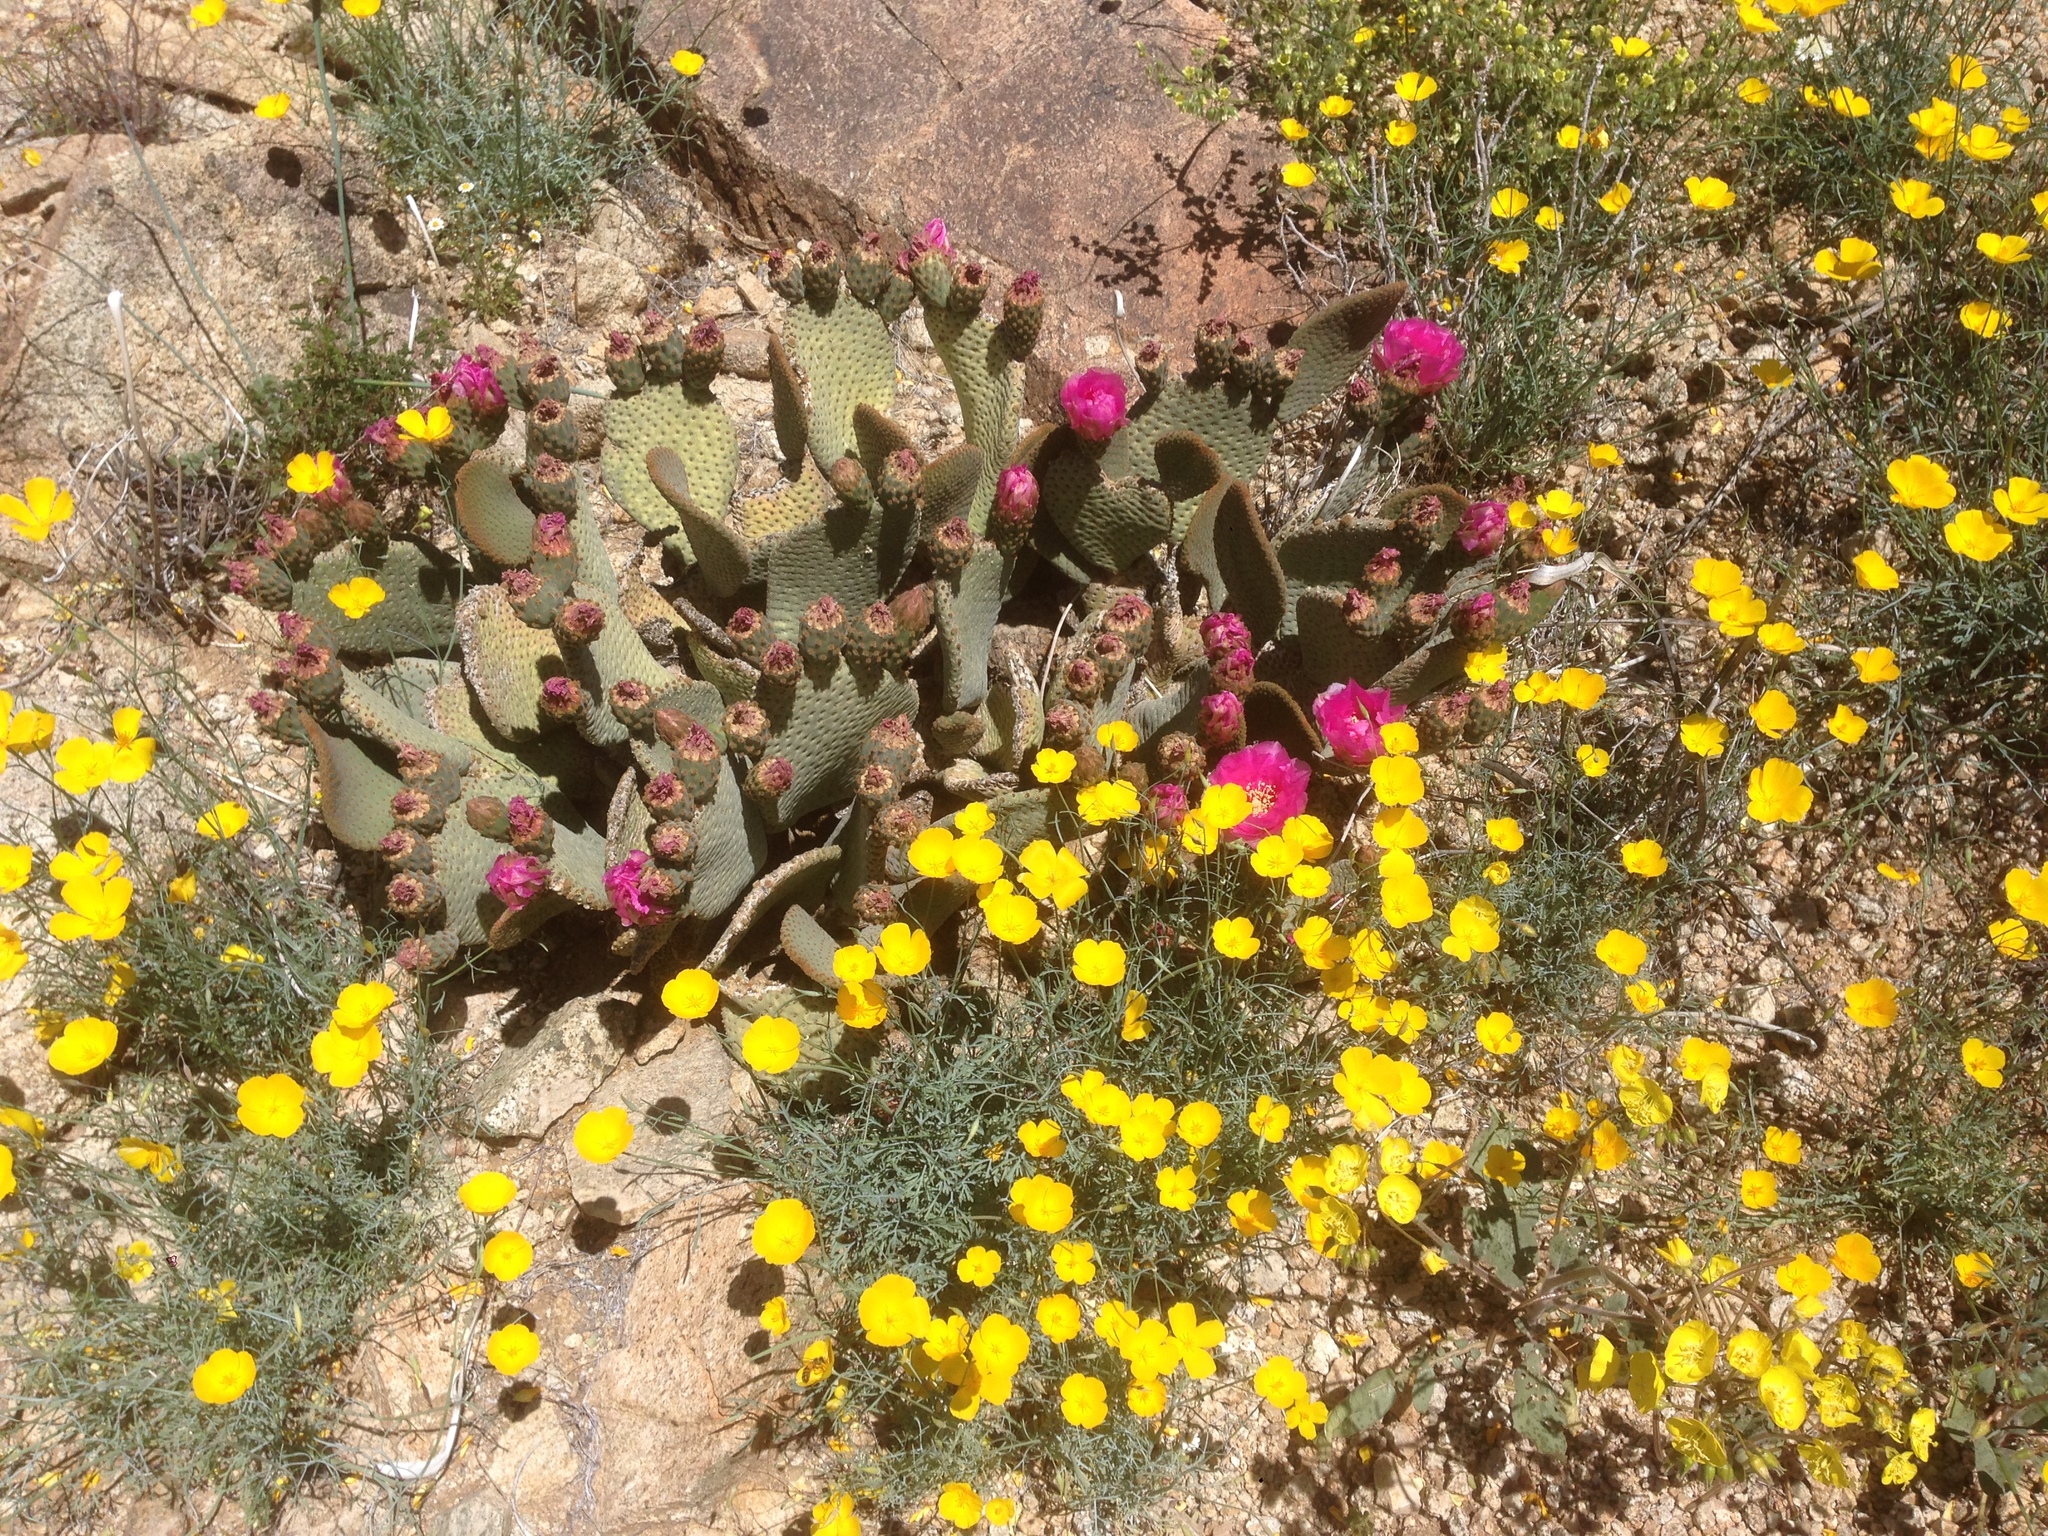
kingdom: Plantae
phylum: Tracheophyta
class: Magnoliopsida
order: Caryophyllales
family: Cactaceae
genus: Opuntia
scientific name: Opuntia basilaris
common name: Beavertail prickly-pear
